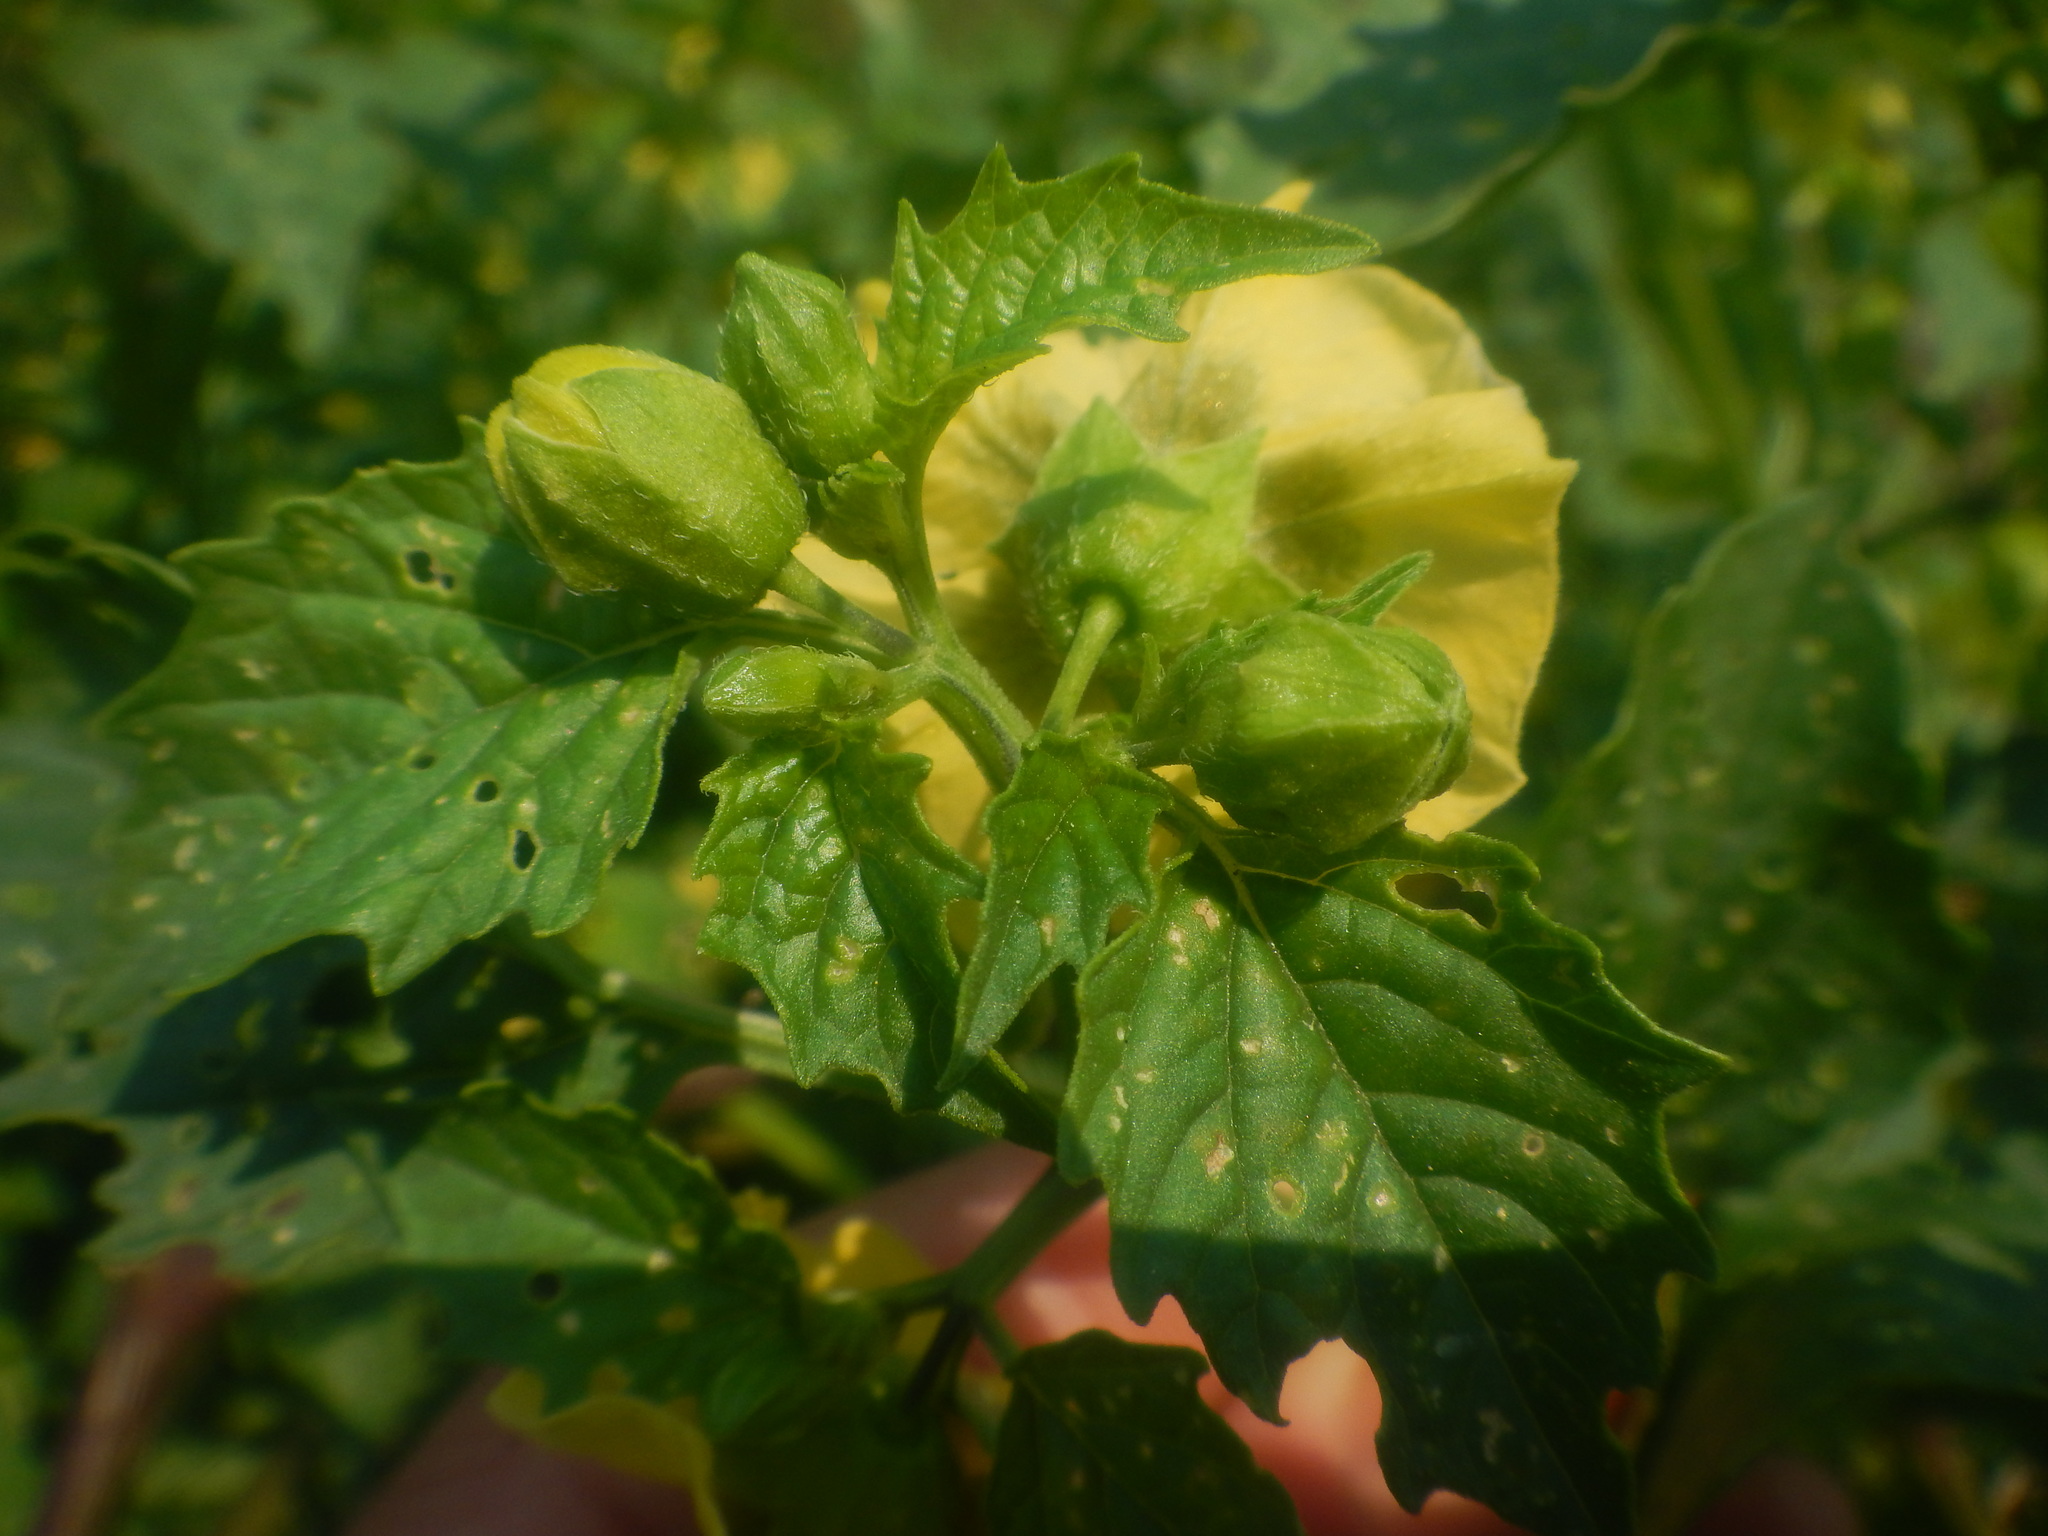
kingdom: Plantae
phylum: Tracheophyta
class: Magnoliopsida
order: Solanales
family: Solanaceae
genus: Physalis
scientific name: Physalis philadelphica
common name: Husk-tomato
